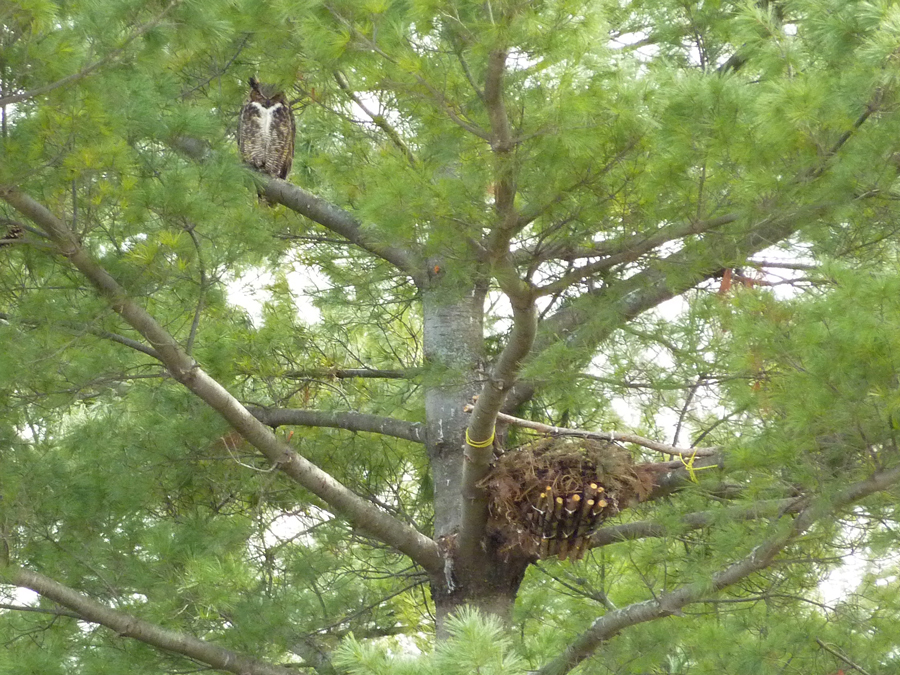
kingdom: Animalia
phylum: Chordata
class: Aves
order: Strigiformes
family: Strigidae
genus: Bubo
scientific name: Bubo virginianus
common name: Great horned owl
